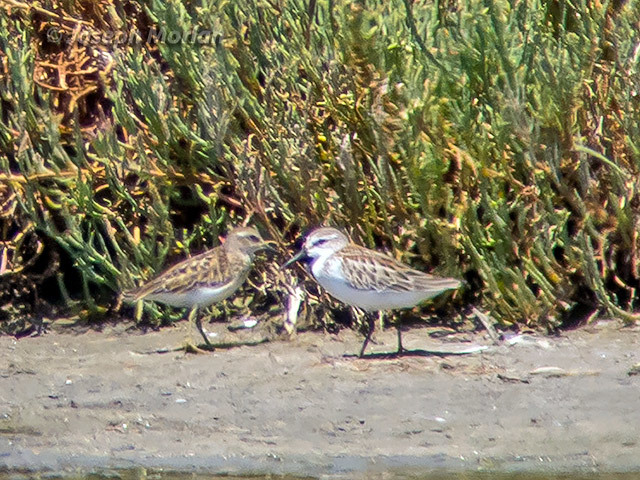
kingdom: Animalia
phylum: Chordata
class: Aves
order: Charadriiformes
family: Scolopacidae
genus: Calidris
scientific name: Calidris minutilla
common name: Least sandpiper
